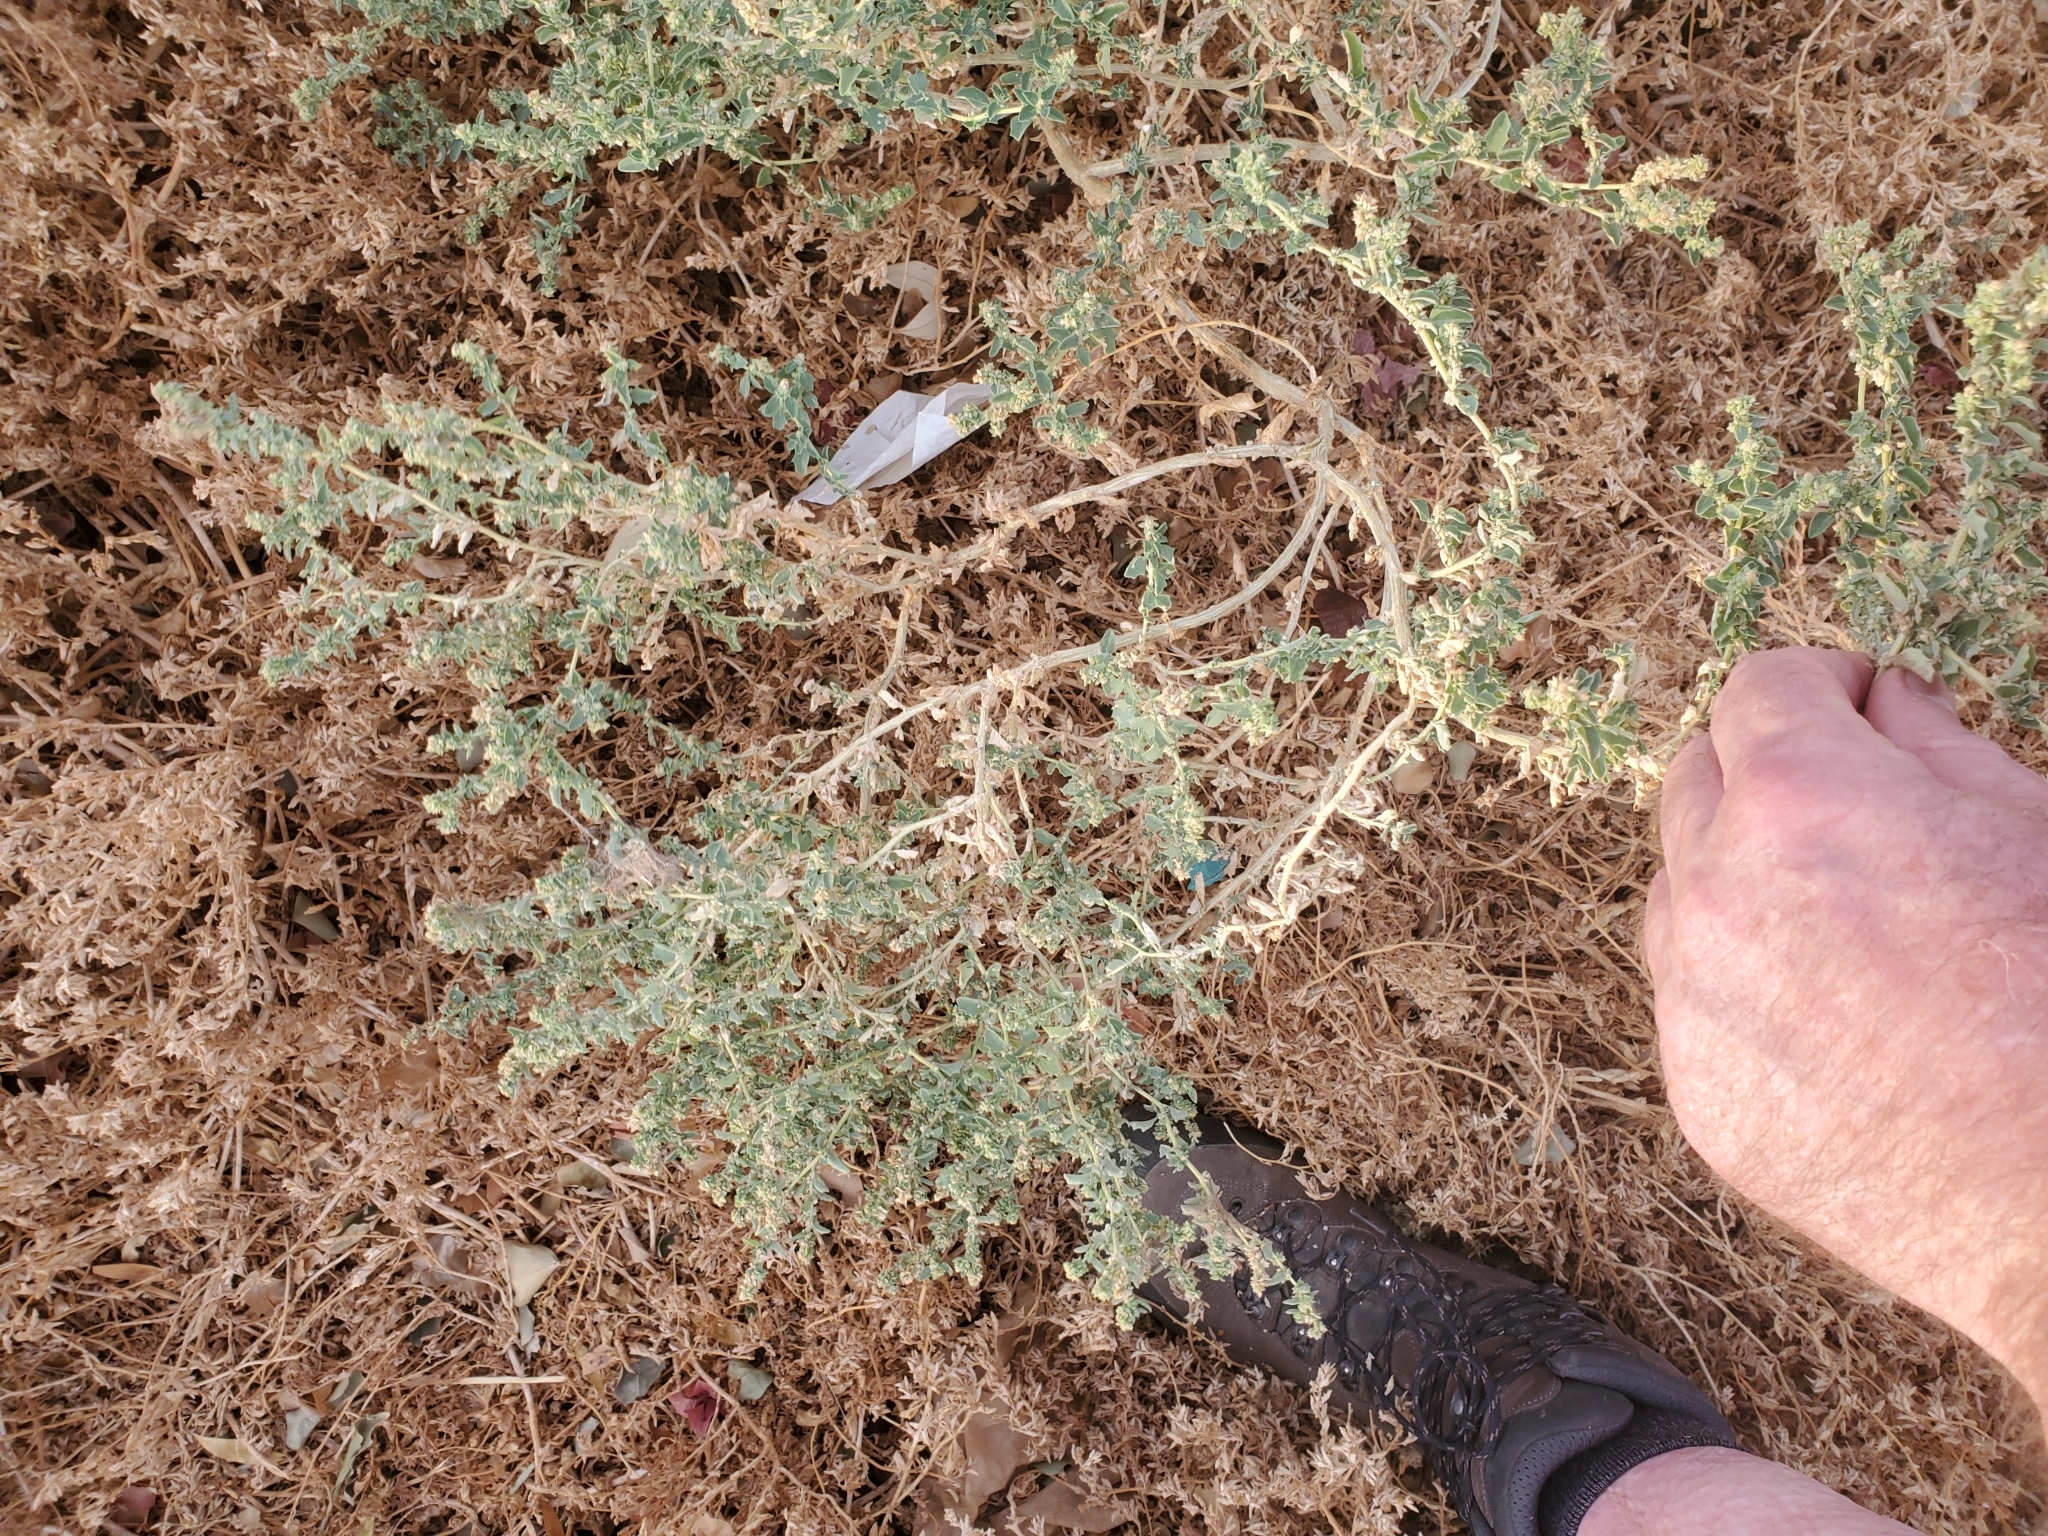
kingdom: Plantae
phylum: Tracheophyta
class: Magnoliopsida
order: Caryophyllales
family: Amaranthaceae
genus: Atriplex
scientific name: Atriplex suberecta
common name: Australian orache
